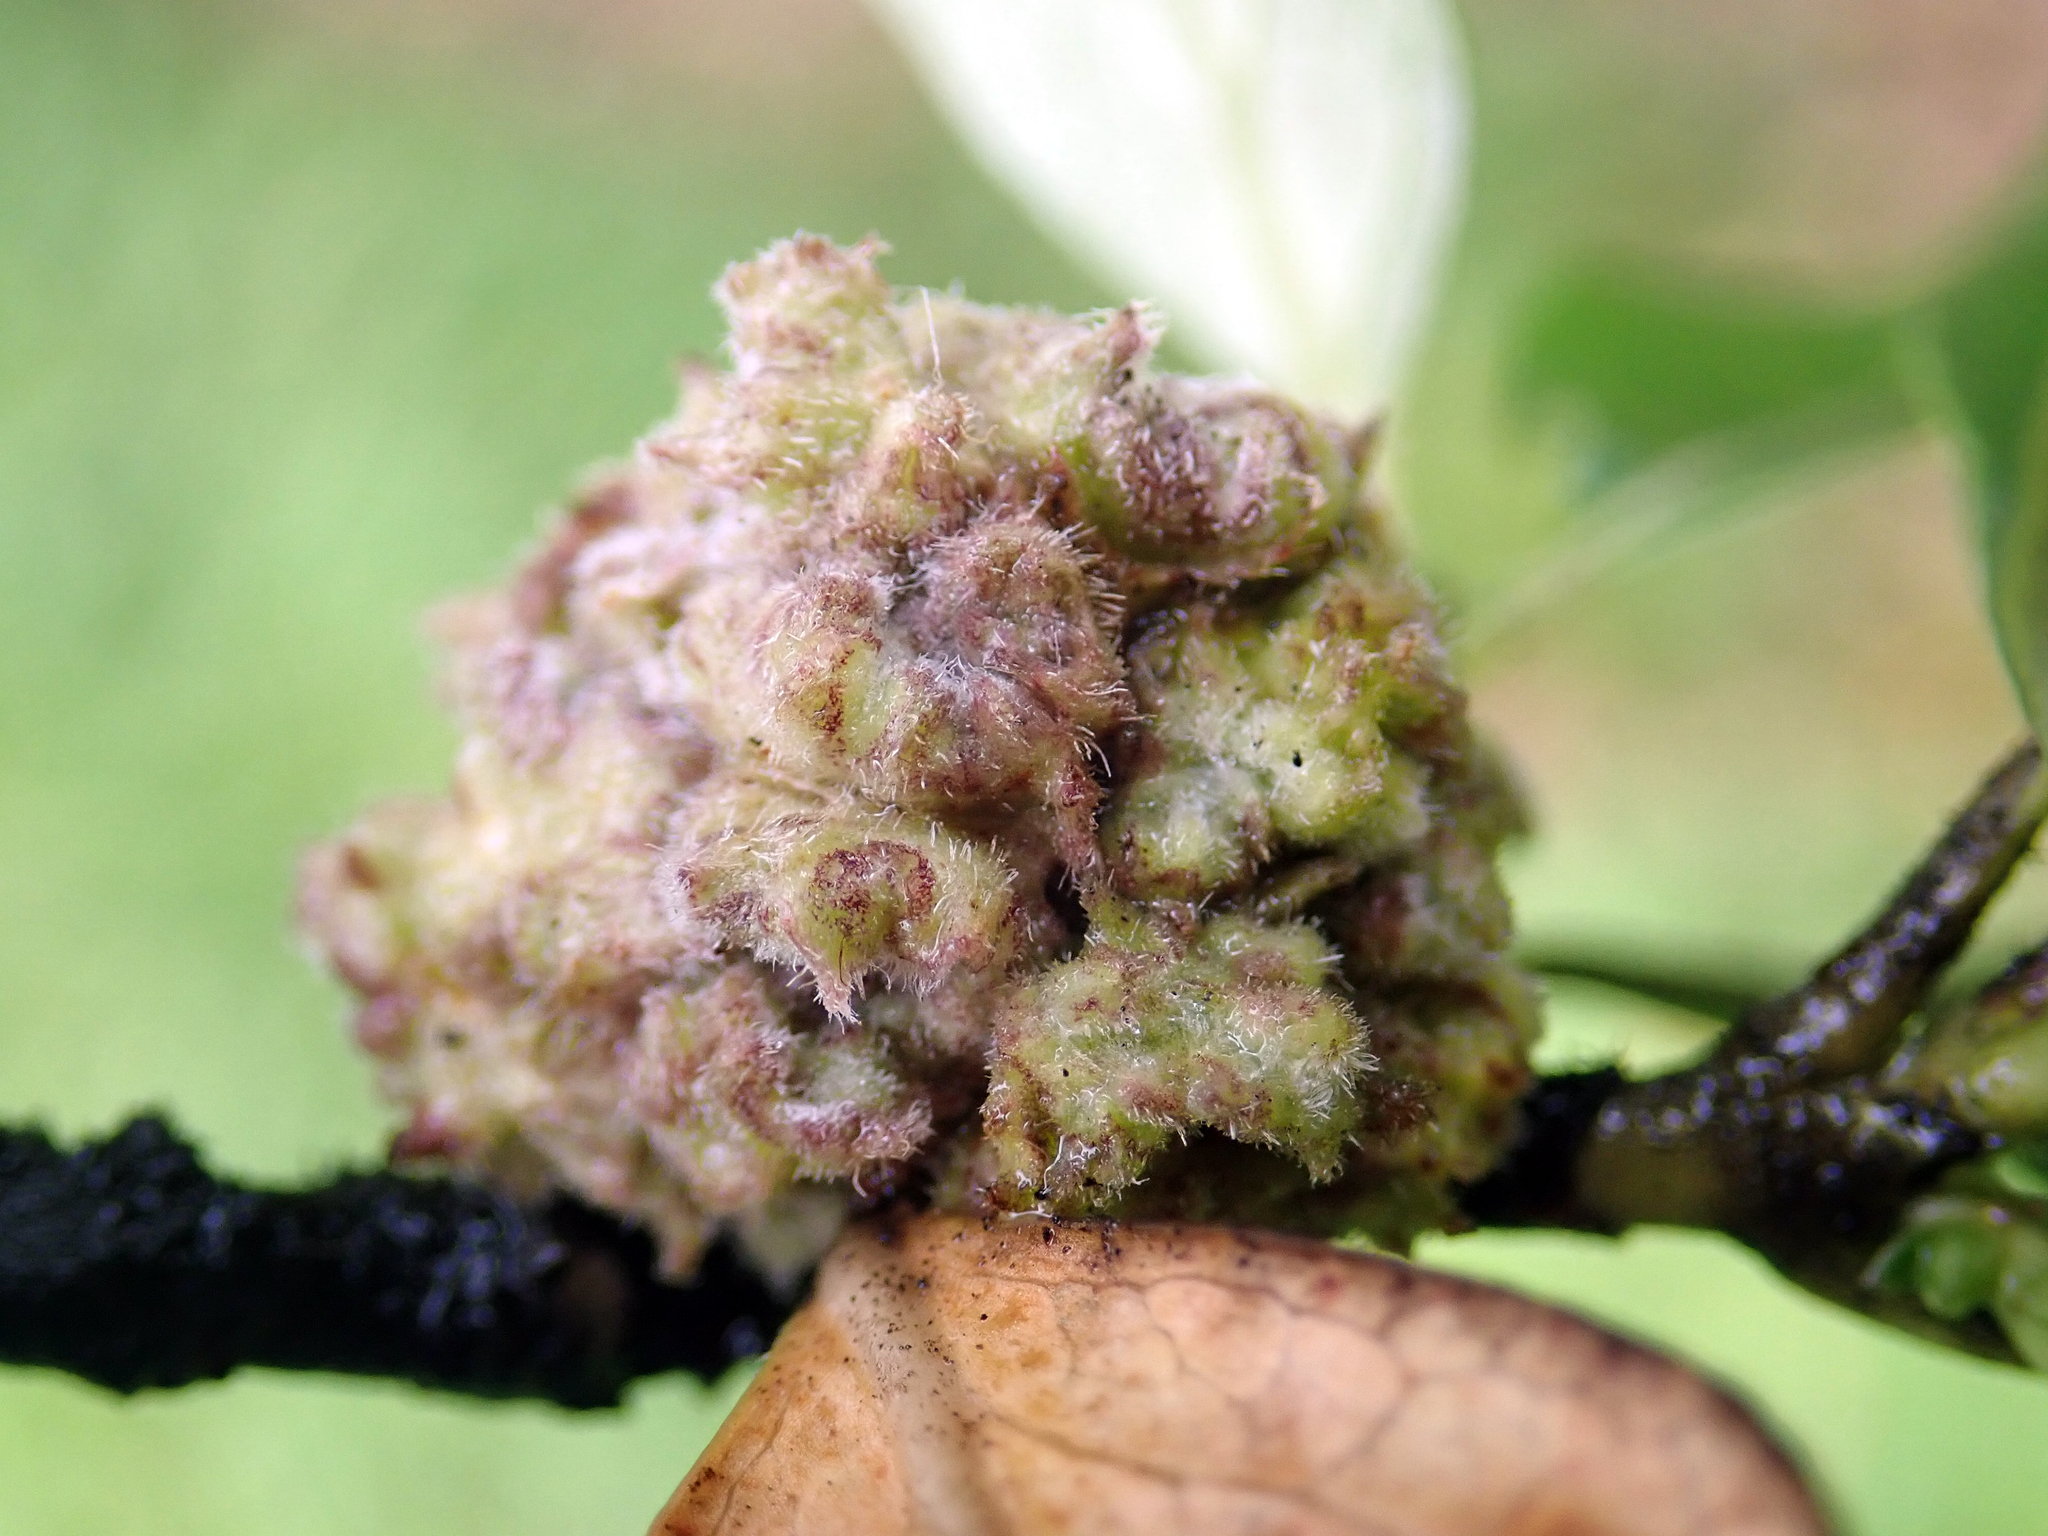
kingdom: Animalia
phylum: Arthropoda
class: Arachnida
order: Trombidiformes
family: Eriophyidae
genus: Acalitus
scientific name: Acalitus
